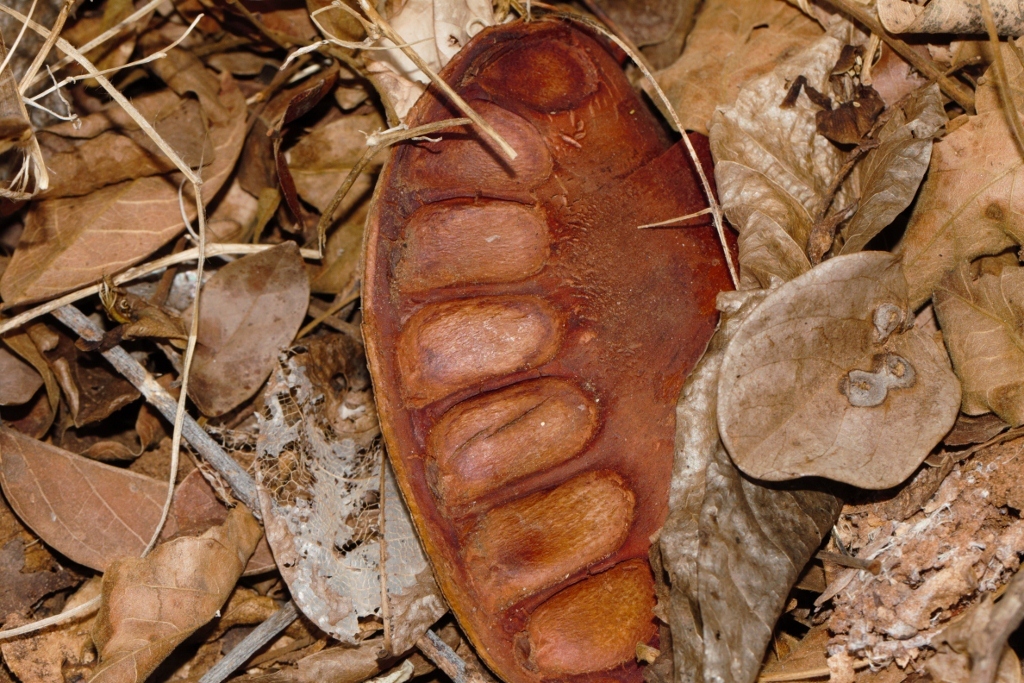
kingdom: Plantae
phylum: Tracheophyta
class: Magnoliopsida
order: Fabales
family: Fabaceae
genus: Xylia
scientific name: Xylia torreana
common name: Hairy sand ash
